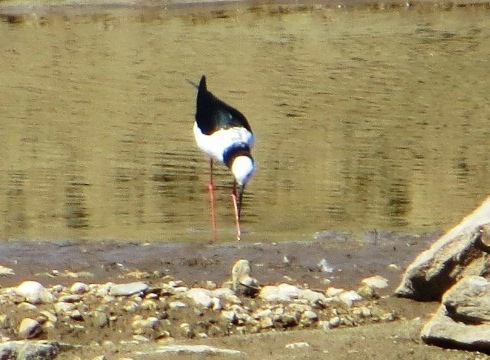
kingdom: Animalia
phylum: Chordata
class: Aves
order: Charadriiformes
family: Recurvirostridae
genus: Himantopus
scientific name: Himantopus leucocephalus
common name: White-headed stilt
